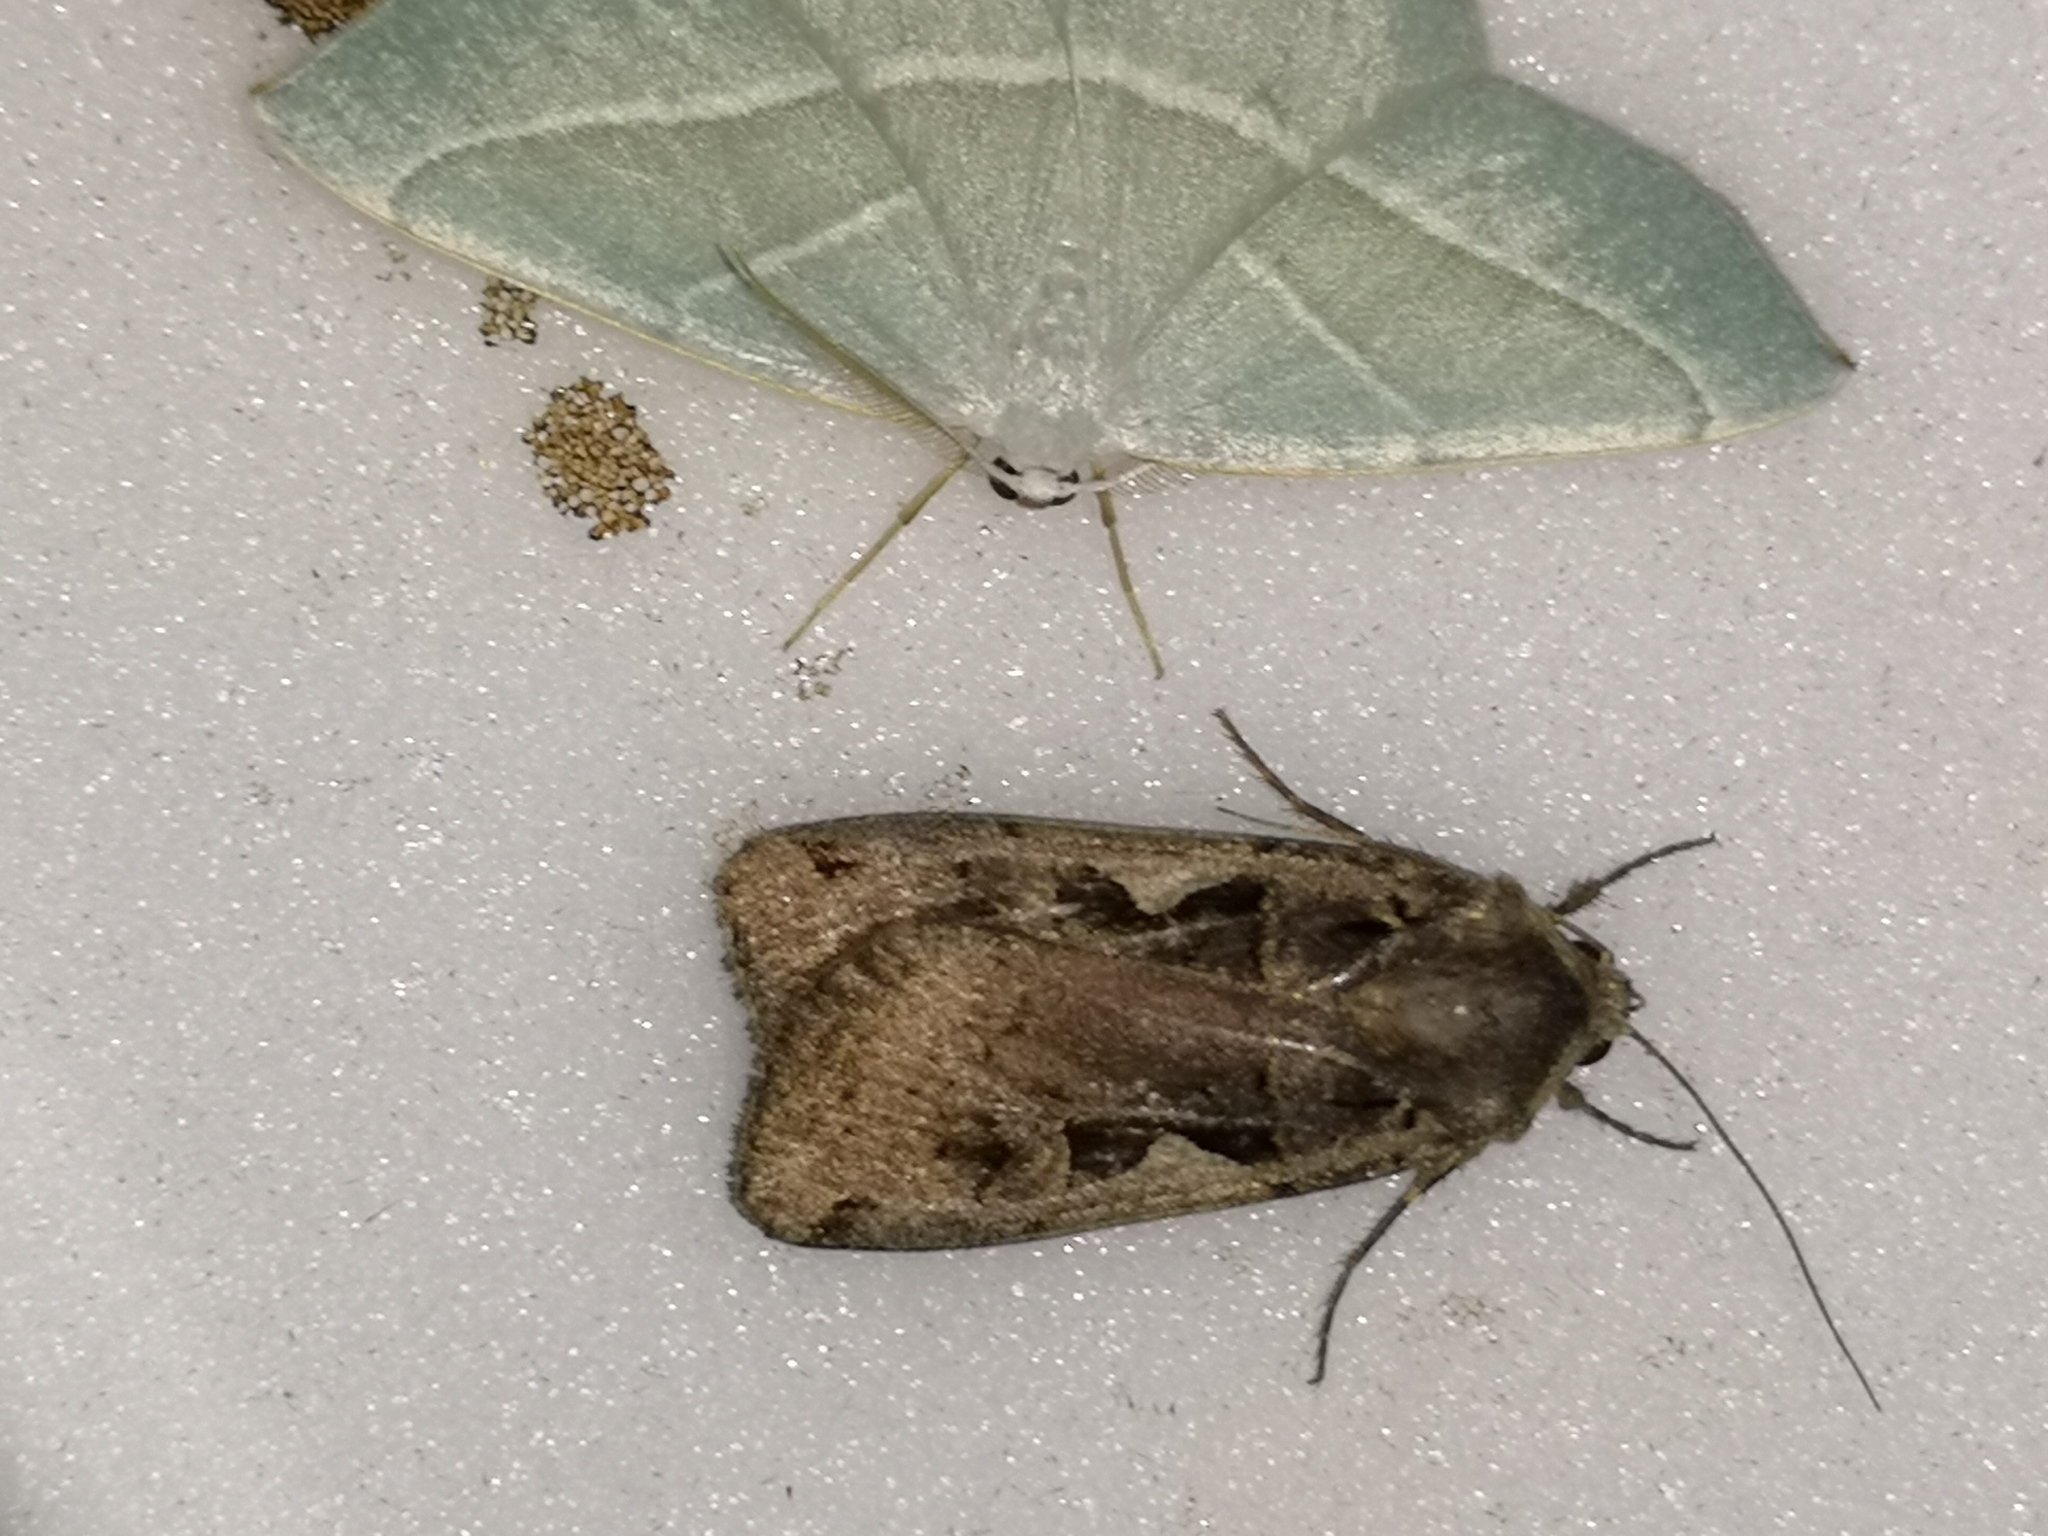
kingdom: Animalia
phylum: Arthropoda
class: Insecta
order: Lepidoptera
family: Noctuidae
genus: Xestia
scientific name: Xestia c-nigrum
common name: Setaceous hebrew character
